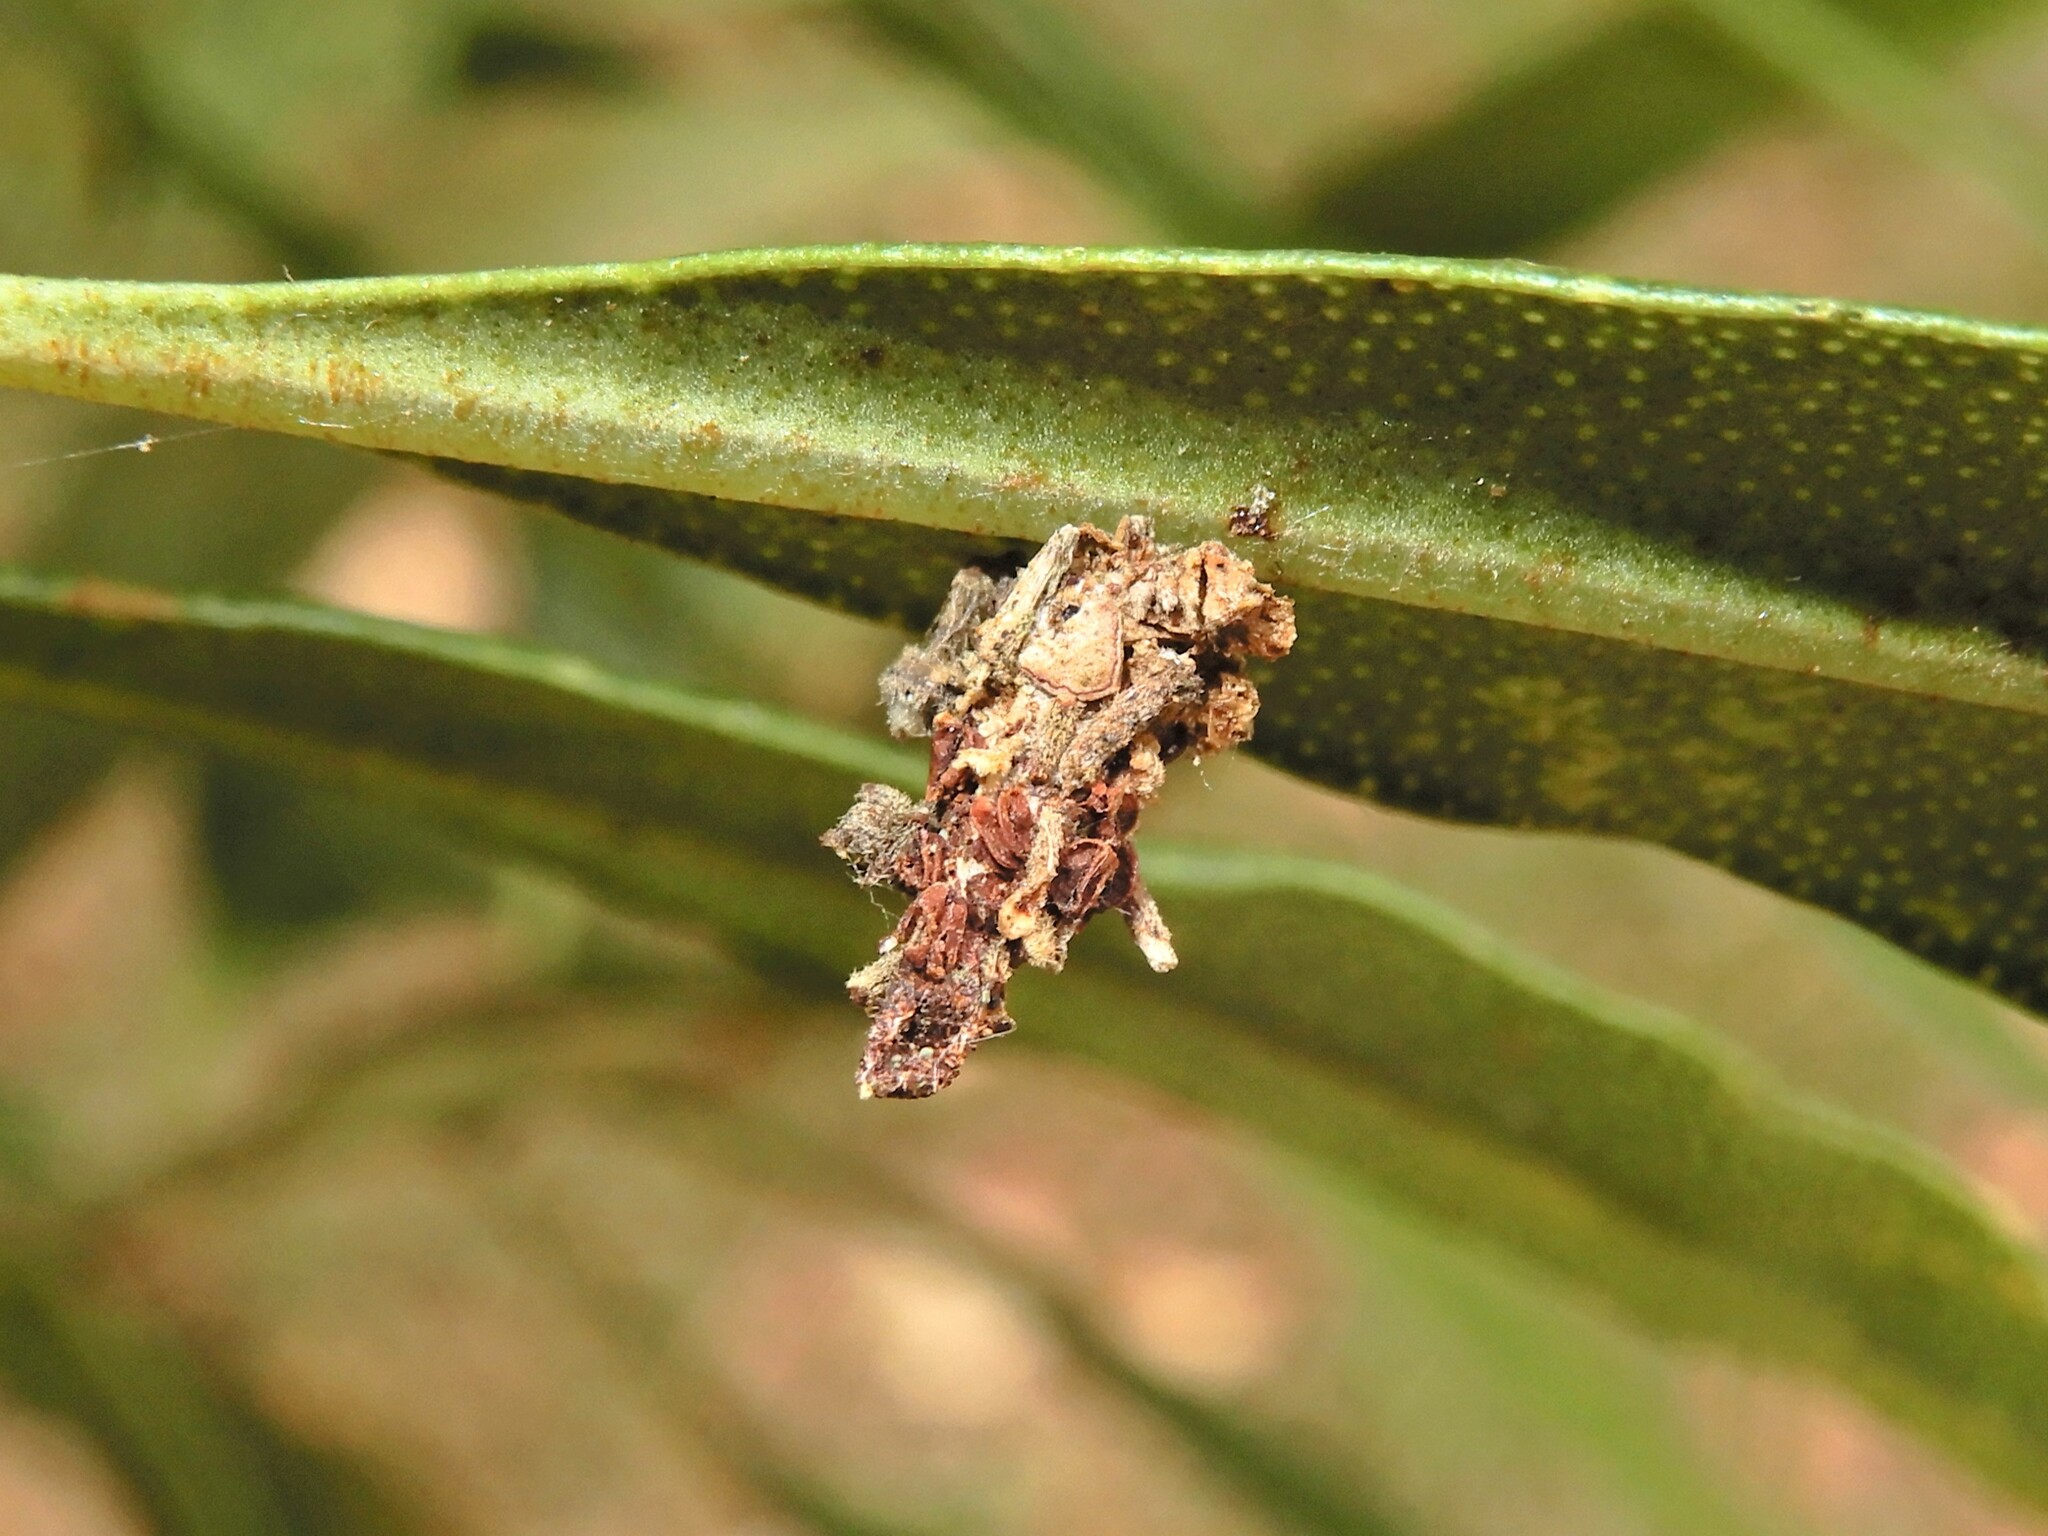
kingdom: Animalia
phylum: Arthropoda
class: Insecta
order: Lepidoptera
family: Psychidae
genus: Liothula
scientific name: Liothula omnivora
